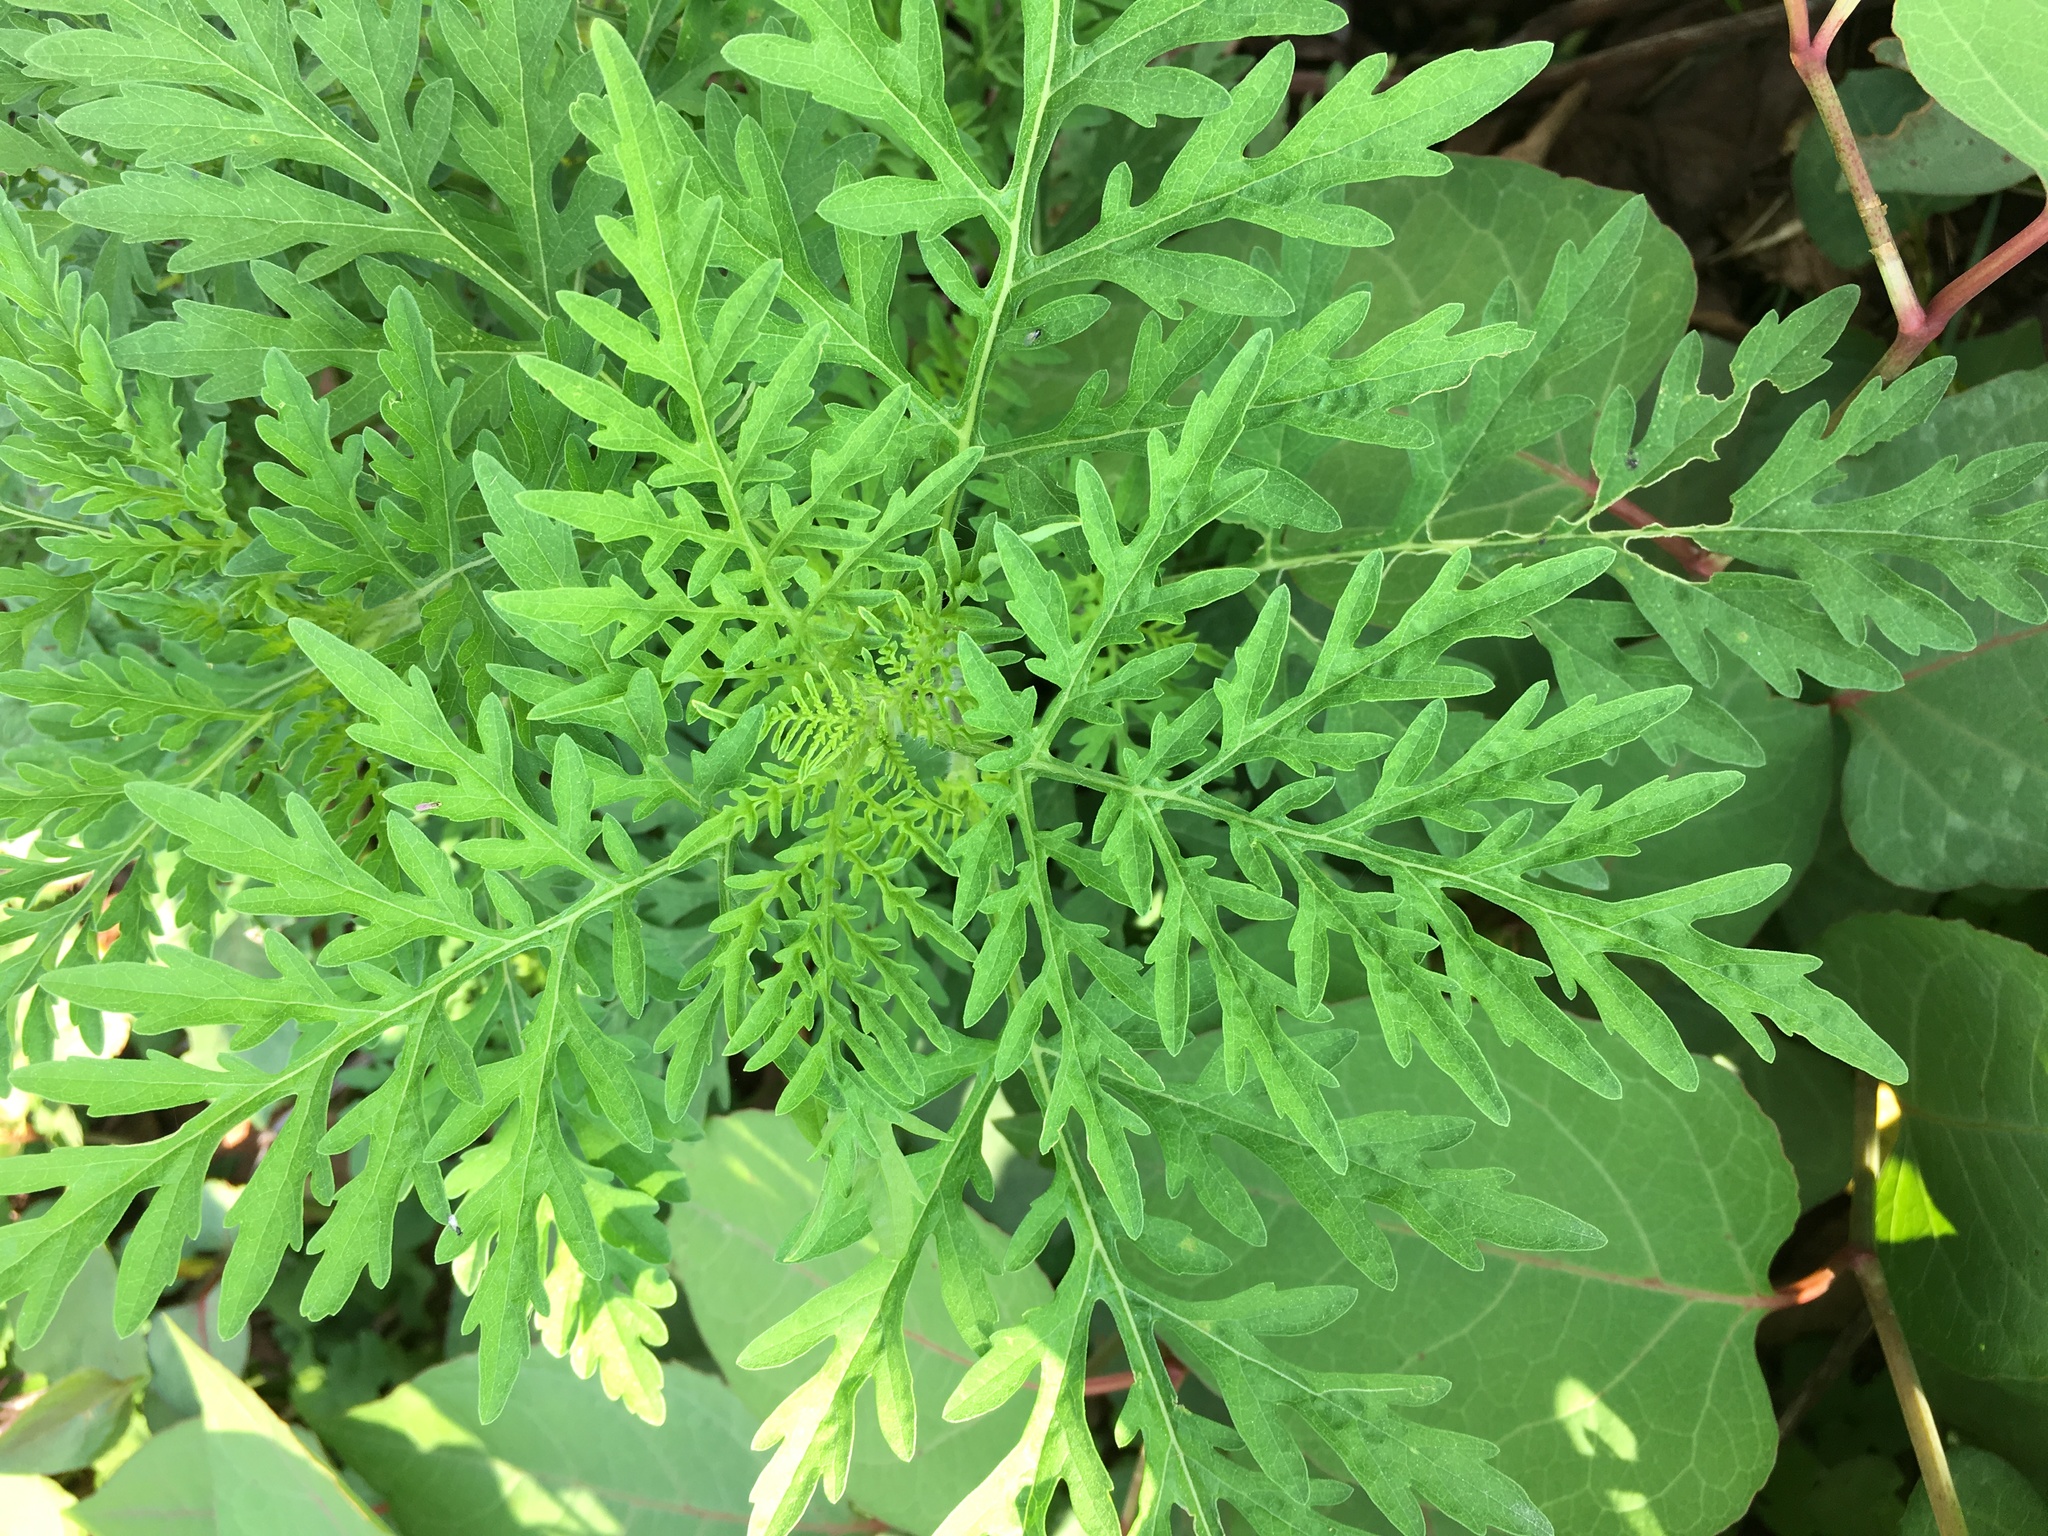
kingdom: Plantae
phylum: Tracheophyta
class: Magnoliopsida
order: Asterales
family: Asteraceae
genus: Ambrosia
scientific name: Ambrosia artemisiifolia
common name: Annual ragweed
